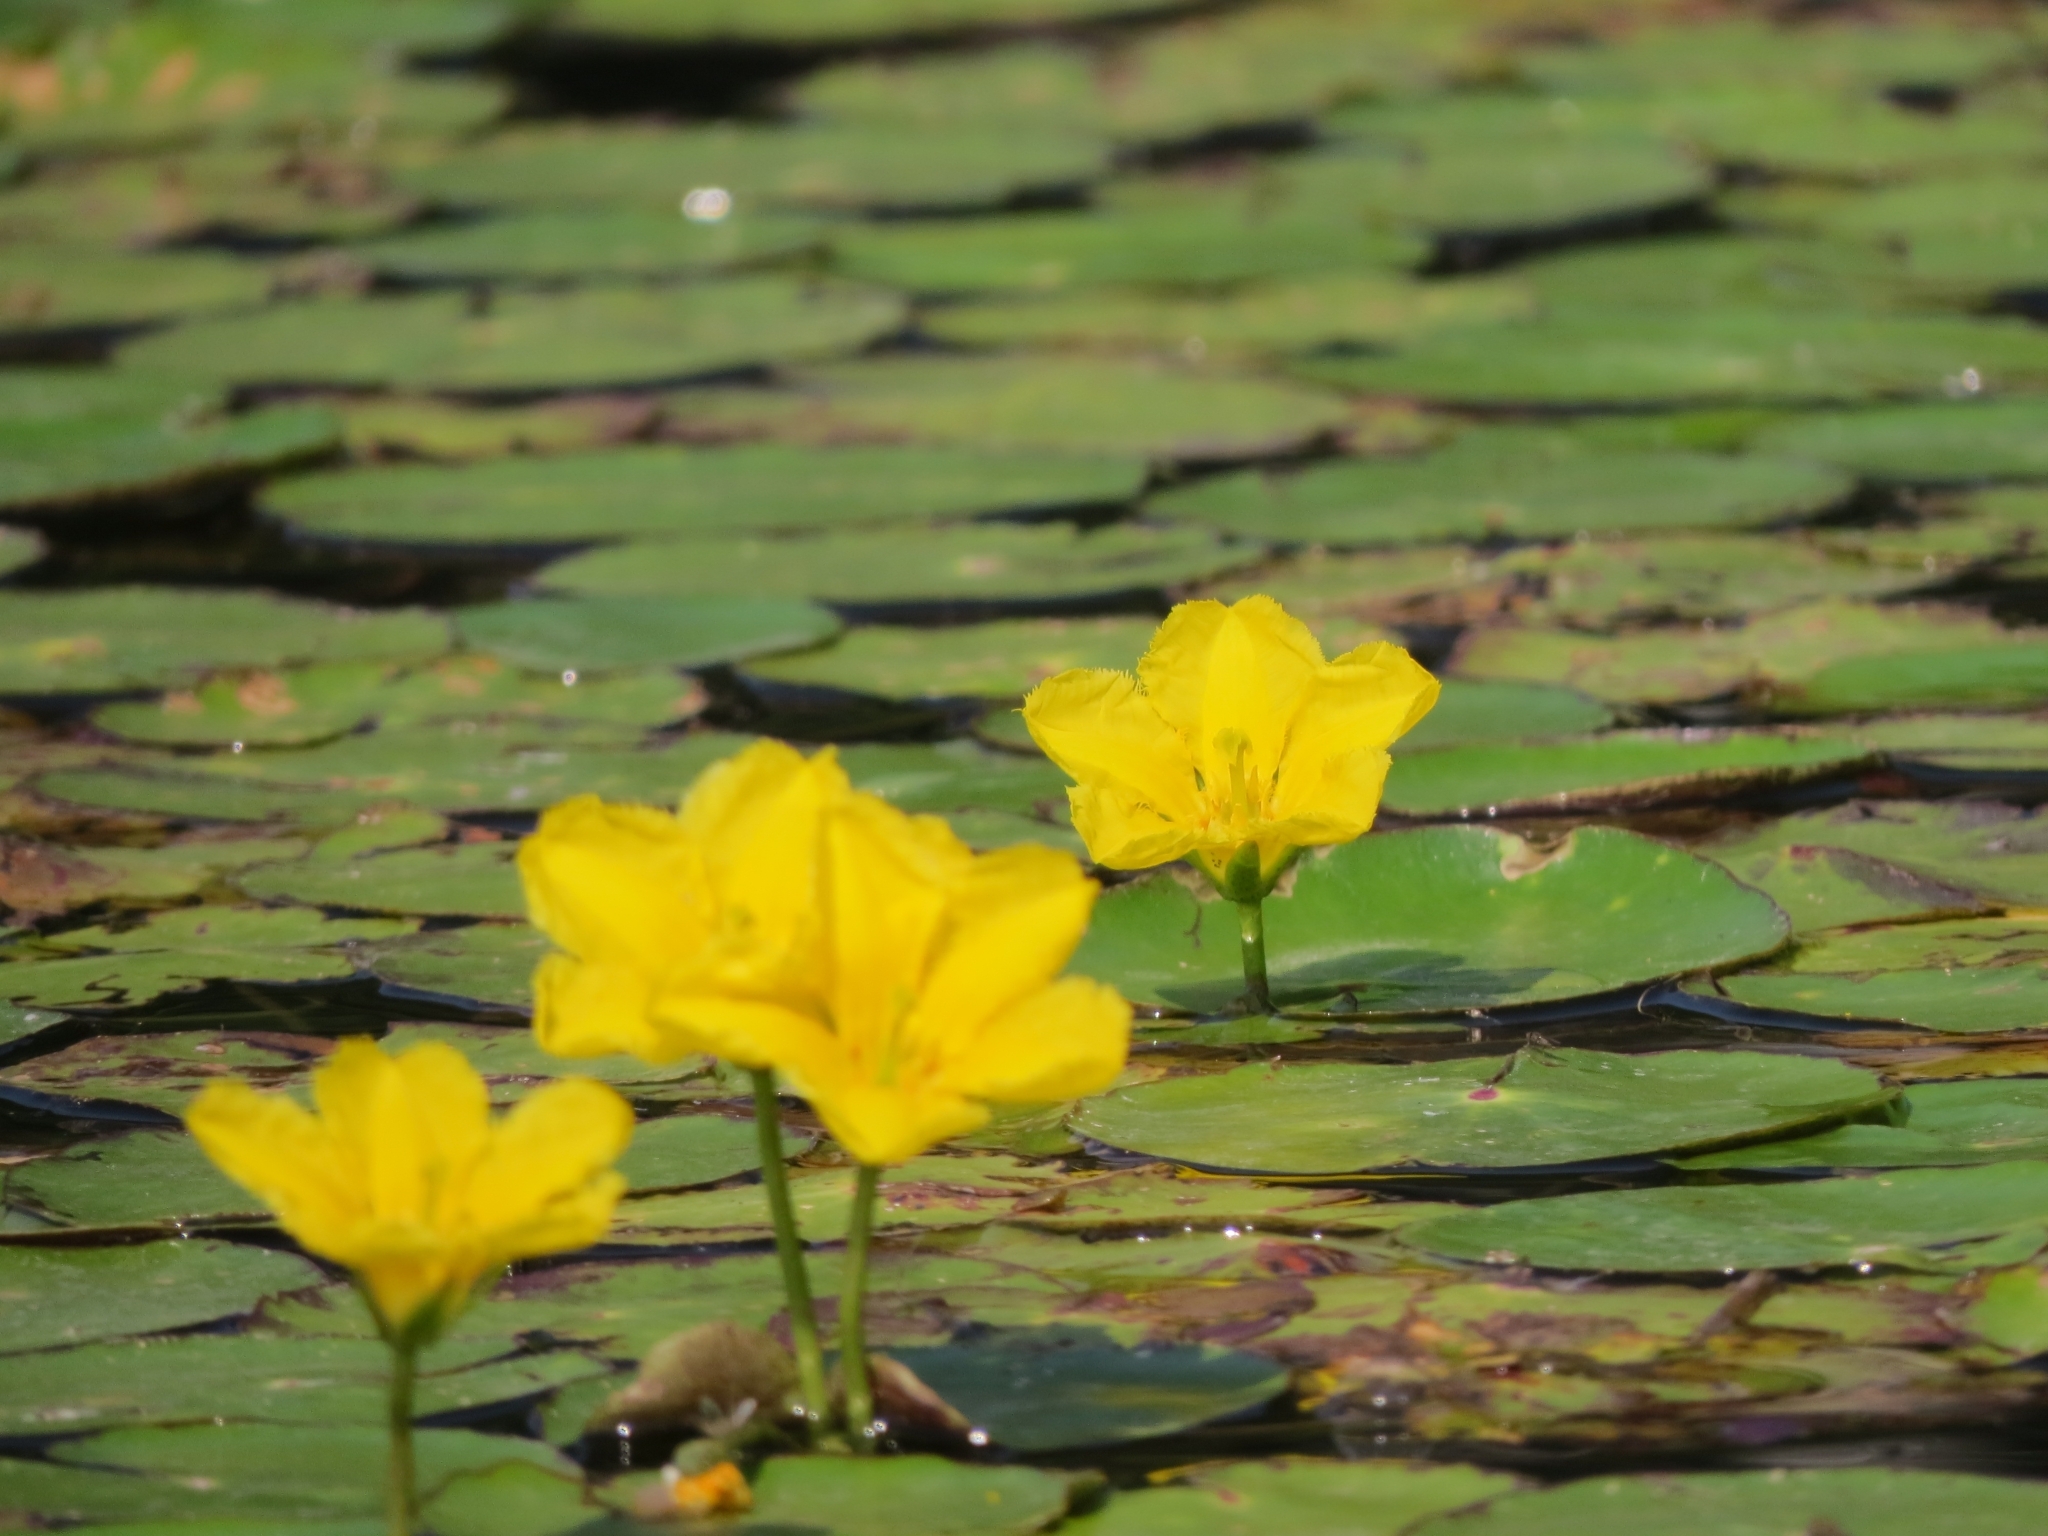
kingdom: Plantae
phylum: Tracheophyta
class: Magnoliopsida
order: Asterales
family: Menyanthaceae
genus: Nymphoides
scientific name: Nymphoides peltata
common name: Fringed water-lily
